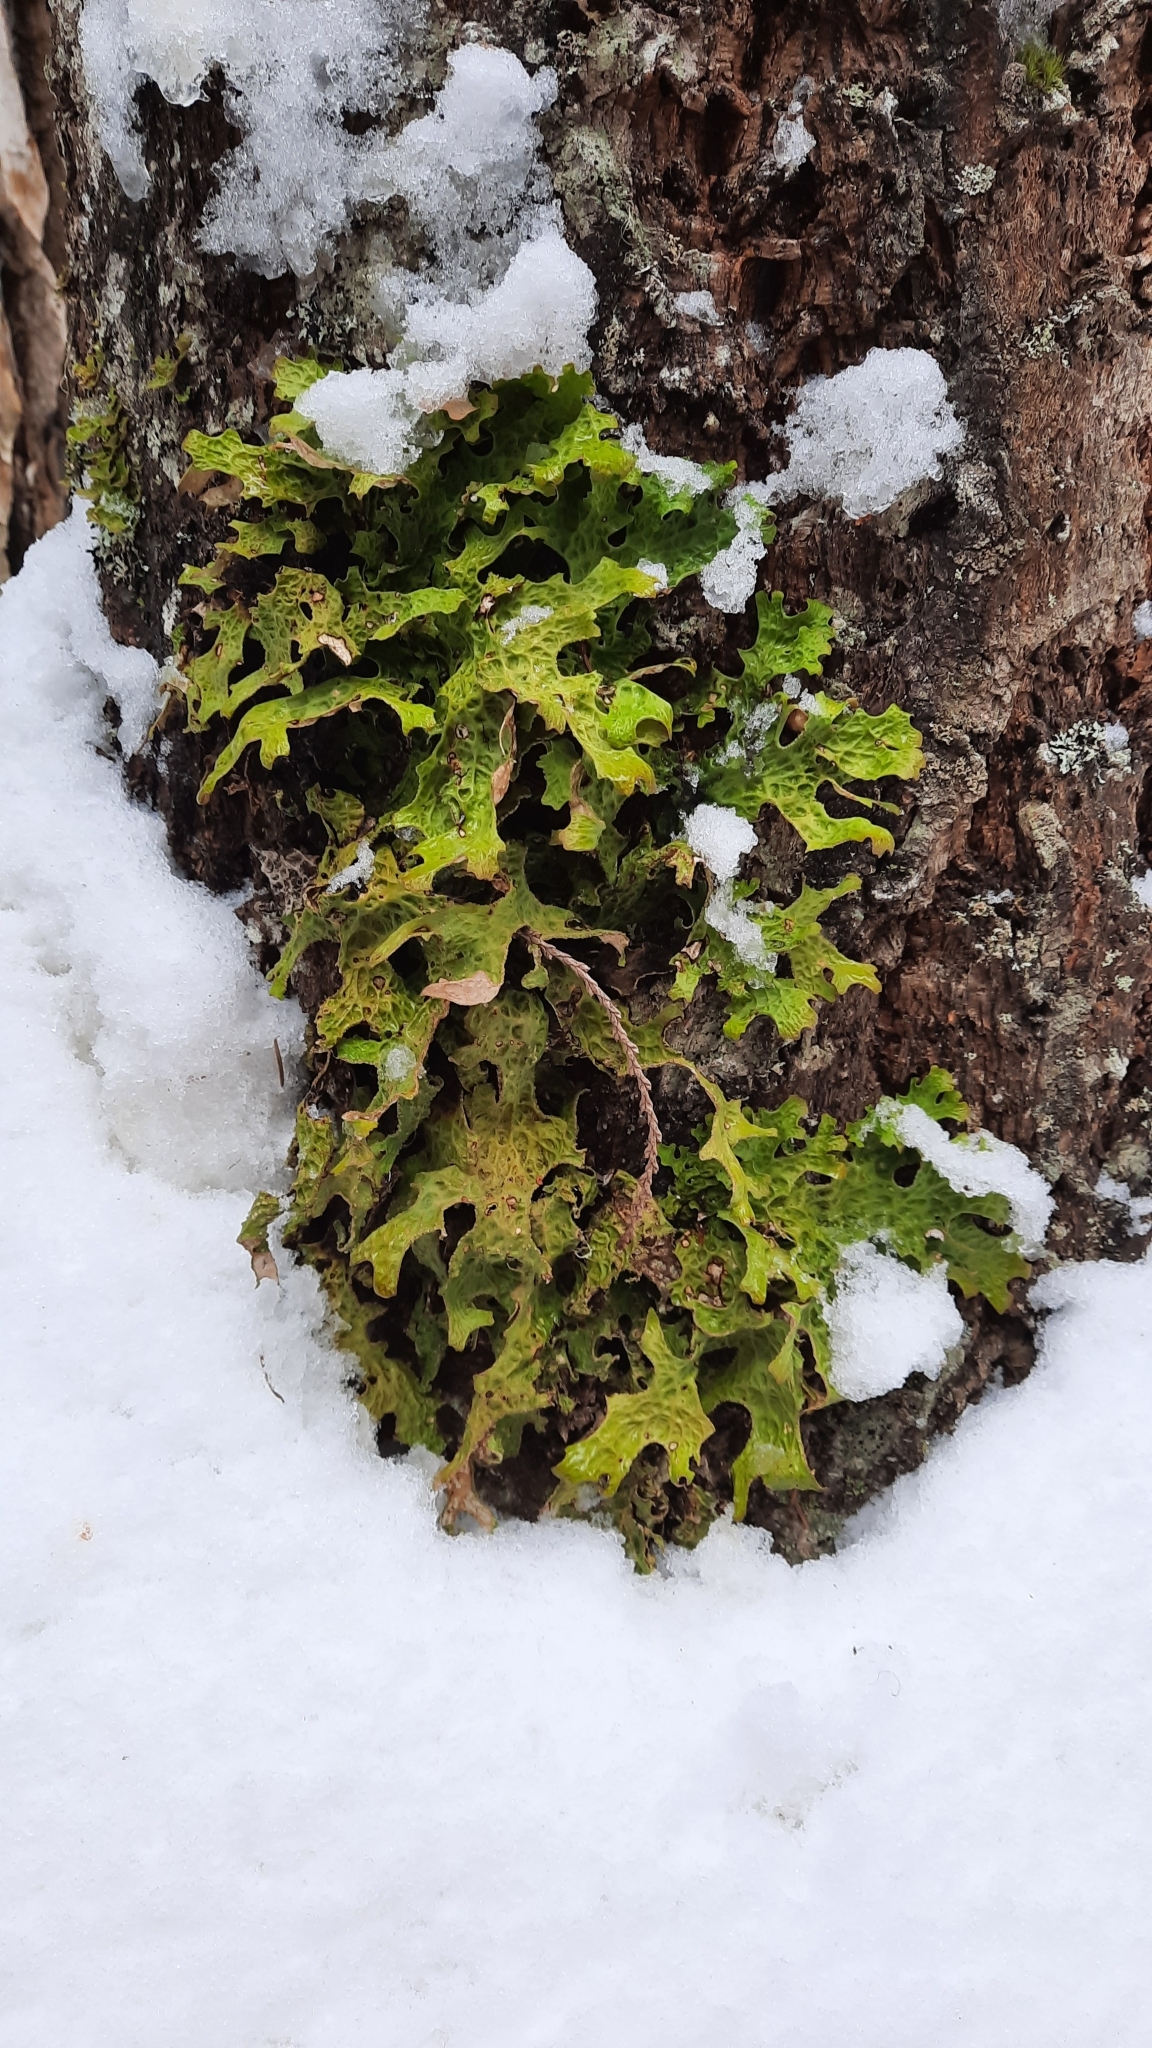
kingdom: Fungi
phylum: Ascomycota
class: Lecanoromycetes
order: Peltigerales
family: Lobariaceae
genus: Lobaria
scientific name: Lobaria pulmonaria
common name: Lungwort
